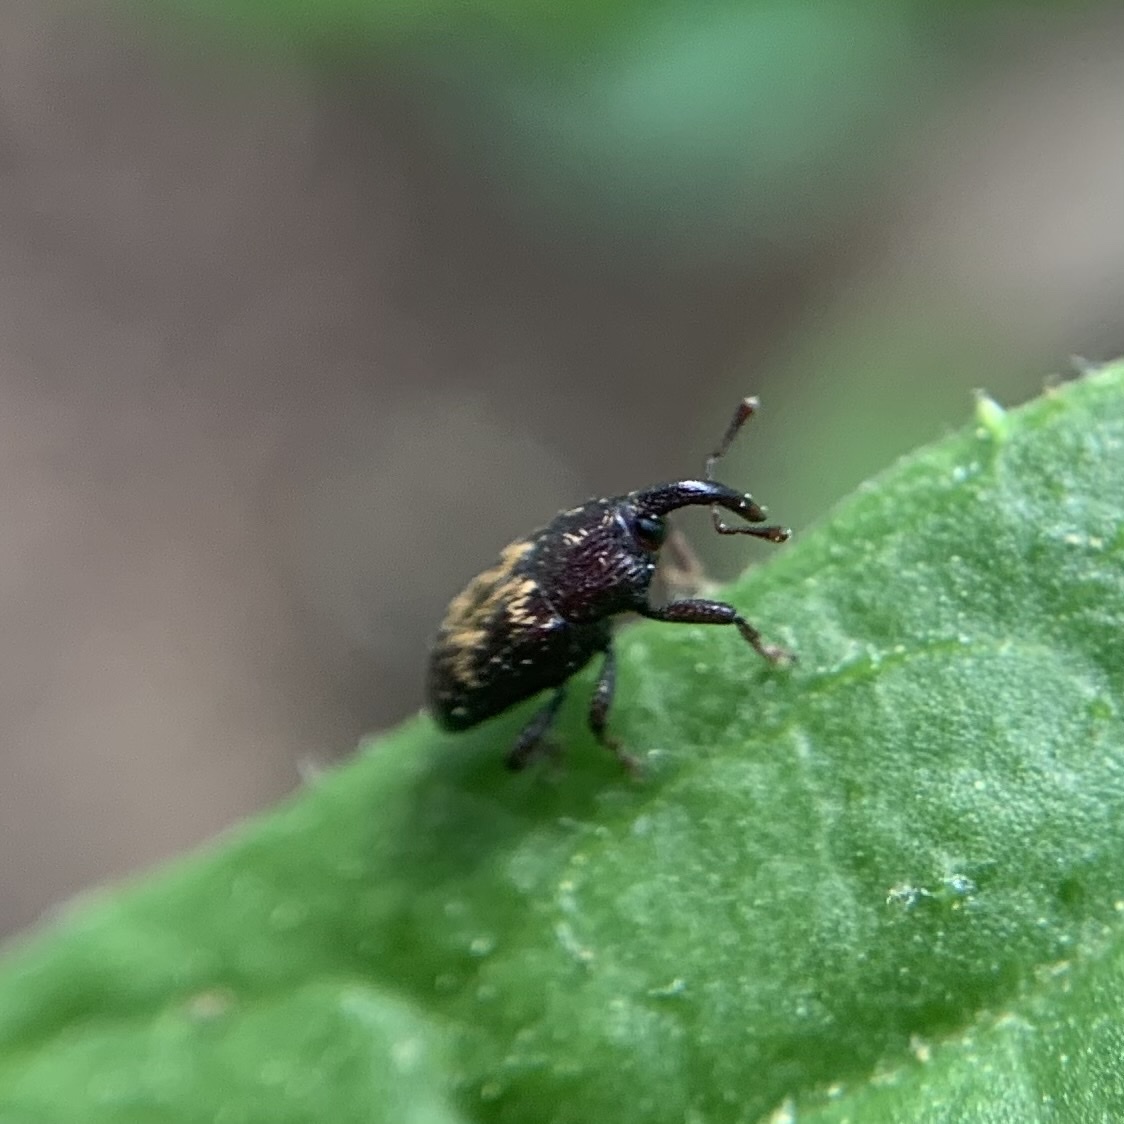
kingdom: Animalia
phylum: Arthropoda
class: Insecta
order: Coleoptera
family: Curculionidae
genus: Glyptobaris
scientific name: Glyptobaris lecontei
